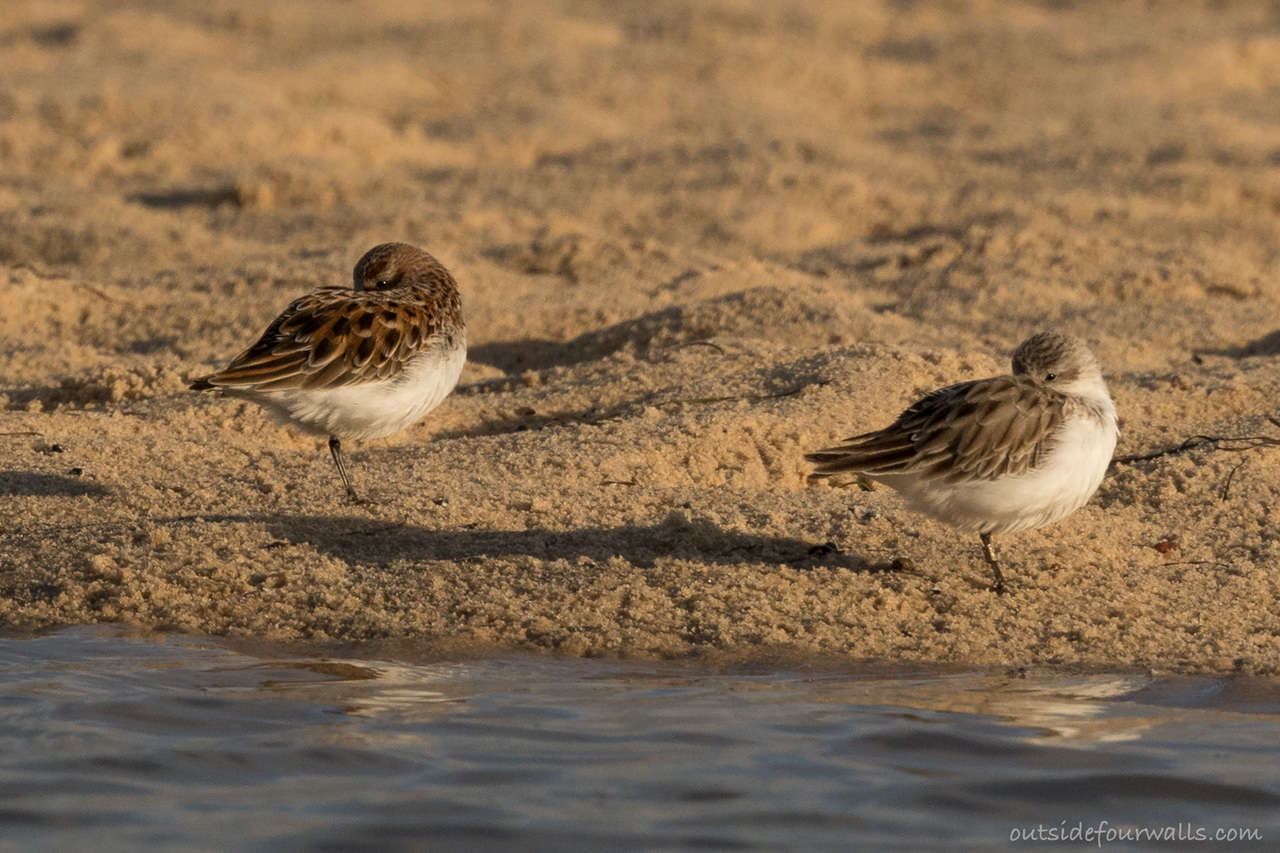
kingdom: Animalia
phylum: Chordata
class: Aves
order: Charadriiformes
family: Scolopacidae
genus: Calidris
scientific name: Calidris minuta
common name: Little stint
